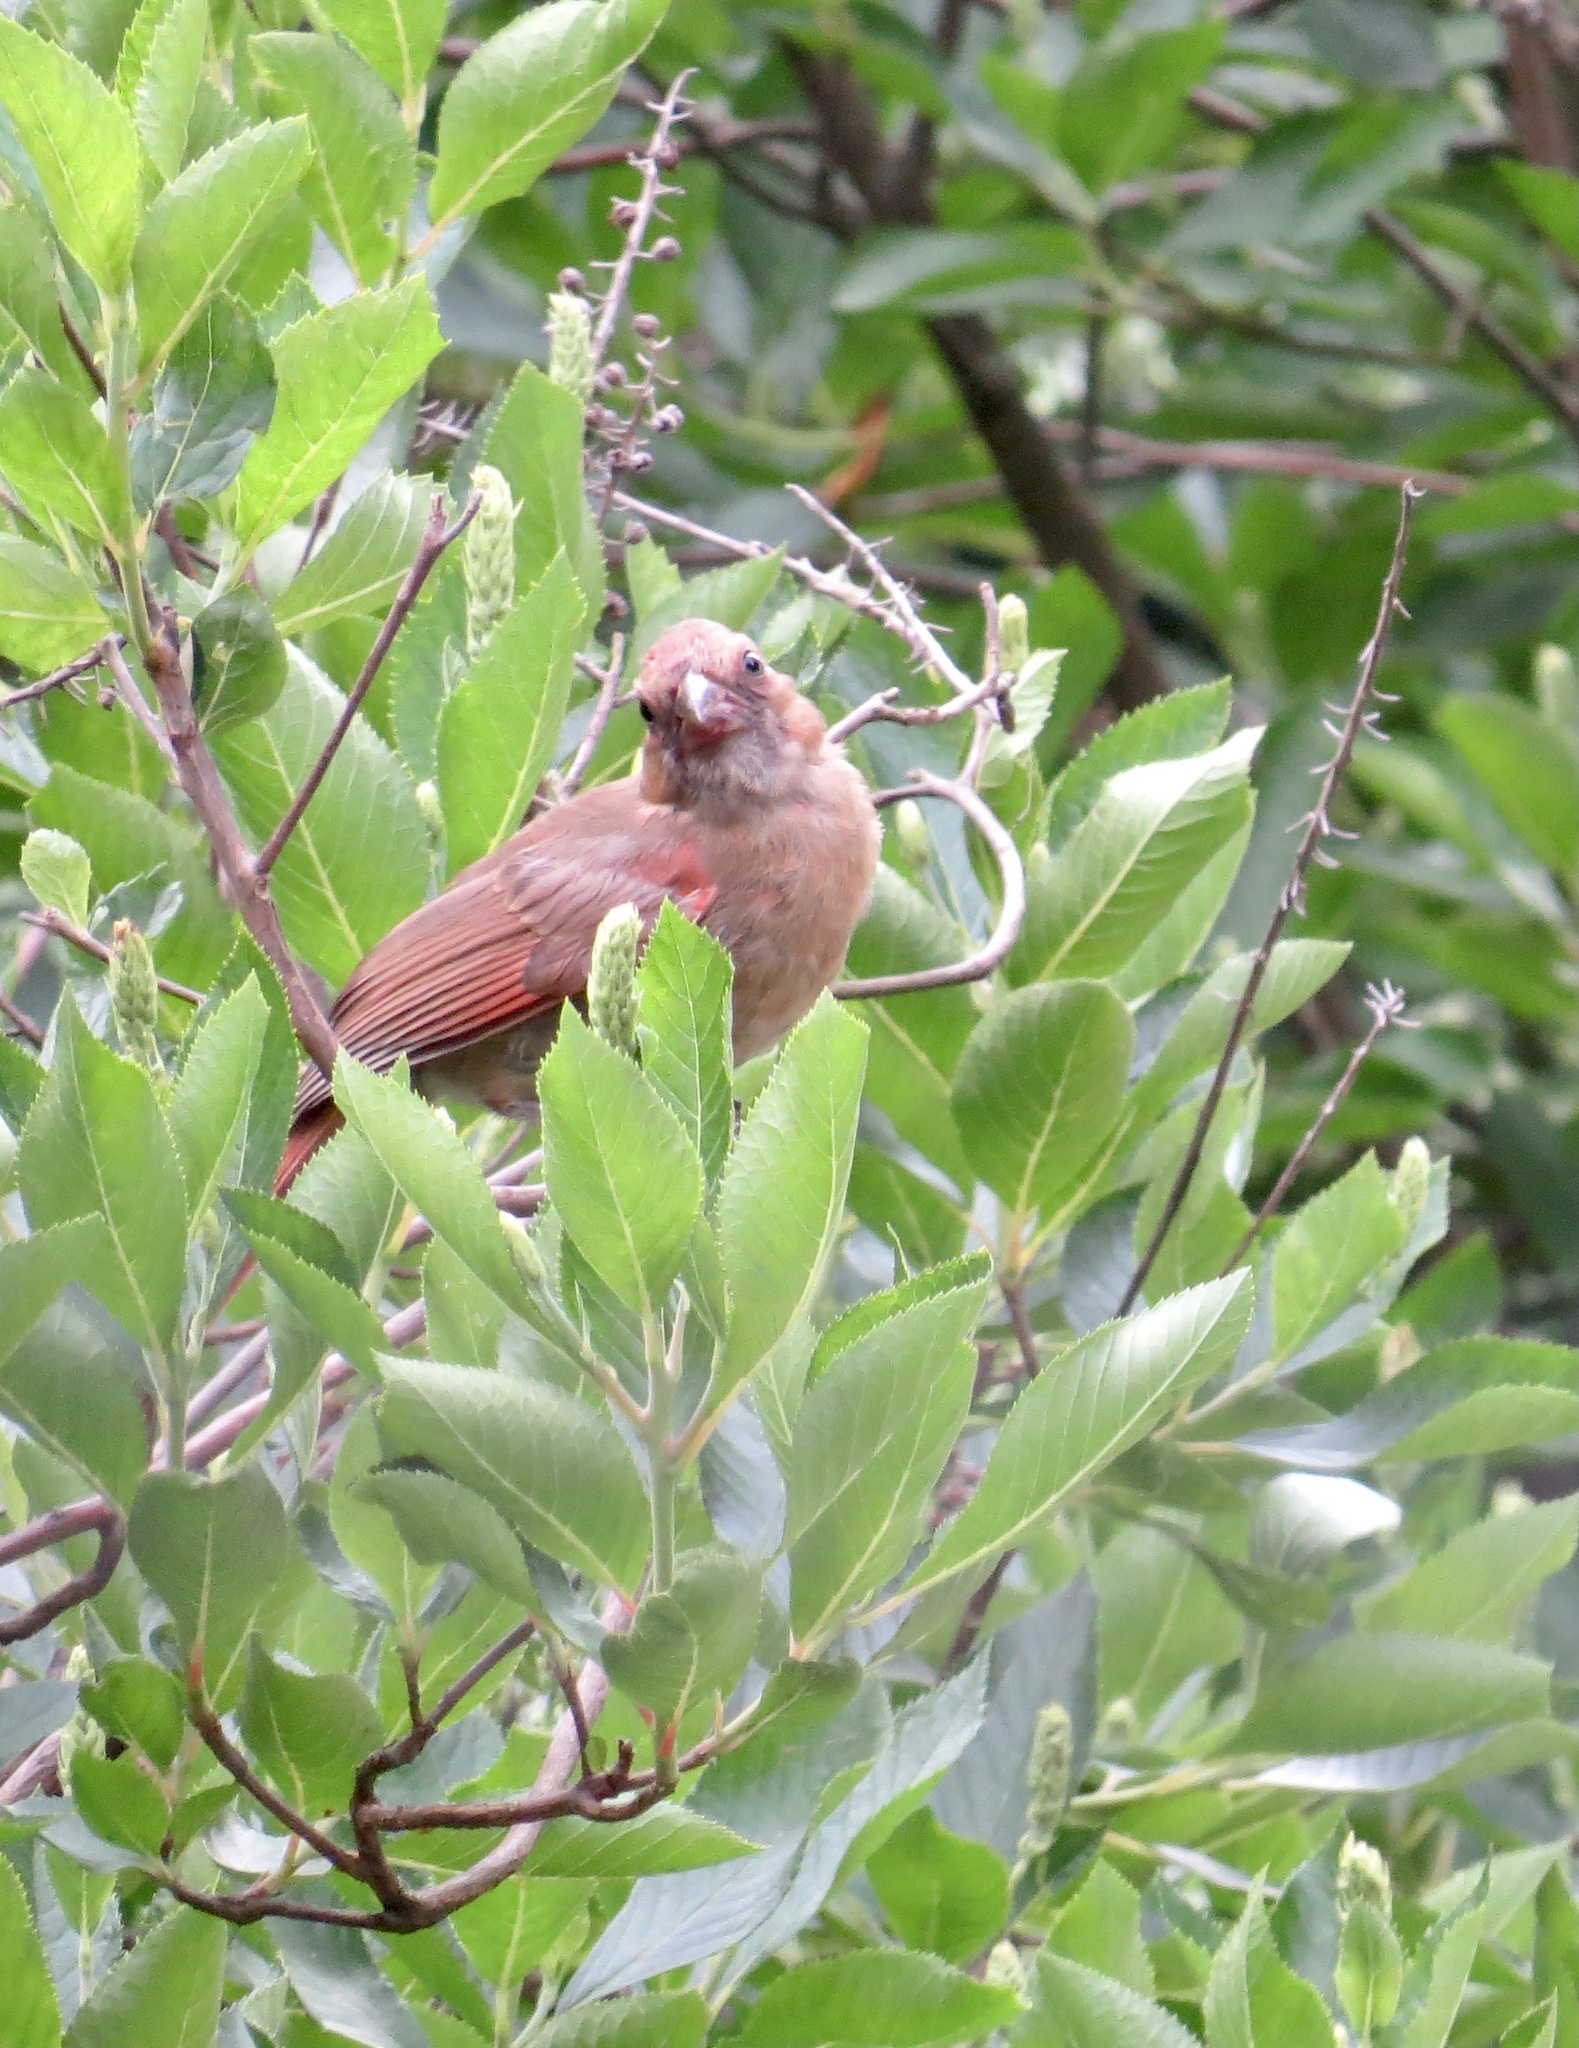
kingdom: Animalia
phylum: Chordata
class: Aves
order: Passeriformes
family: Cardinalidae
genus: Cardinalis
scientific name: Cardinalis cardinalis
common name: Northern cardinal
